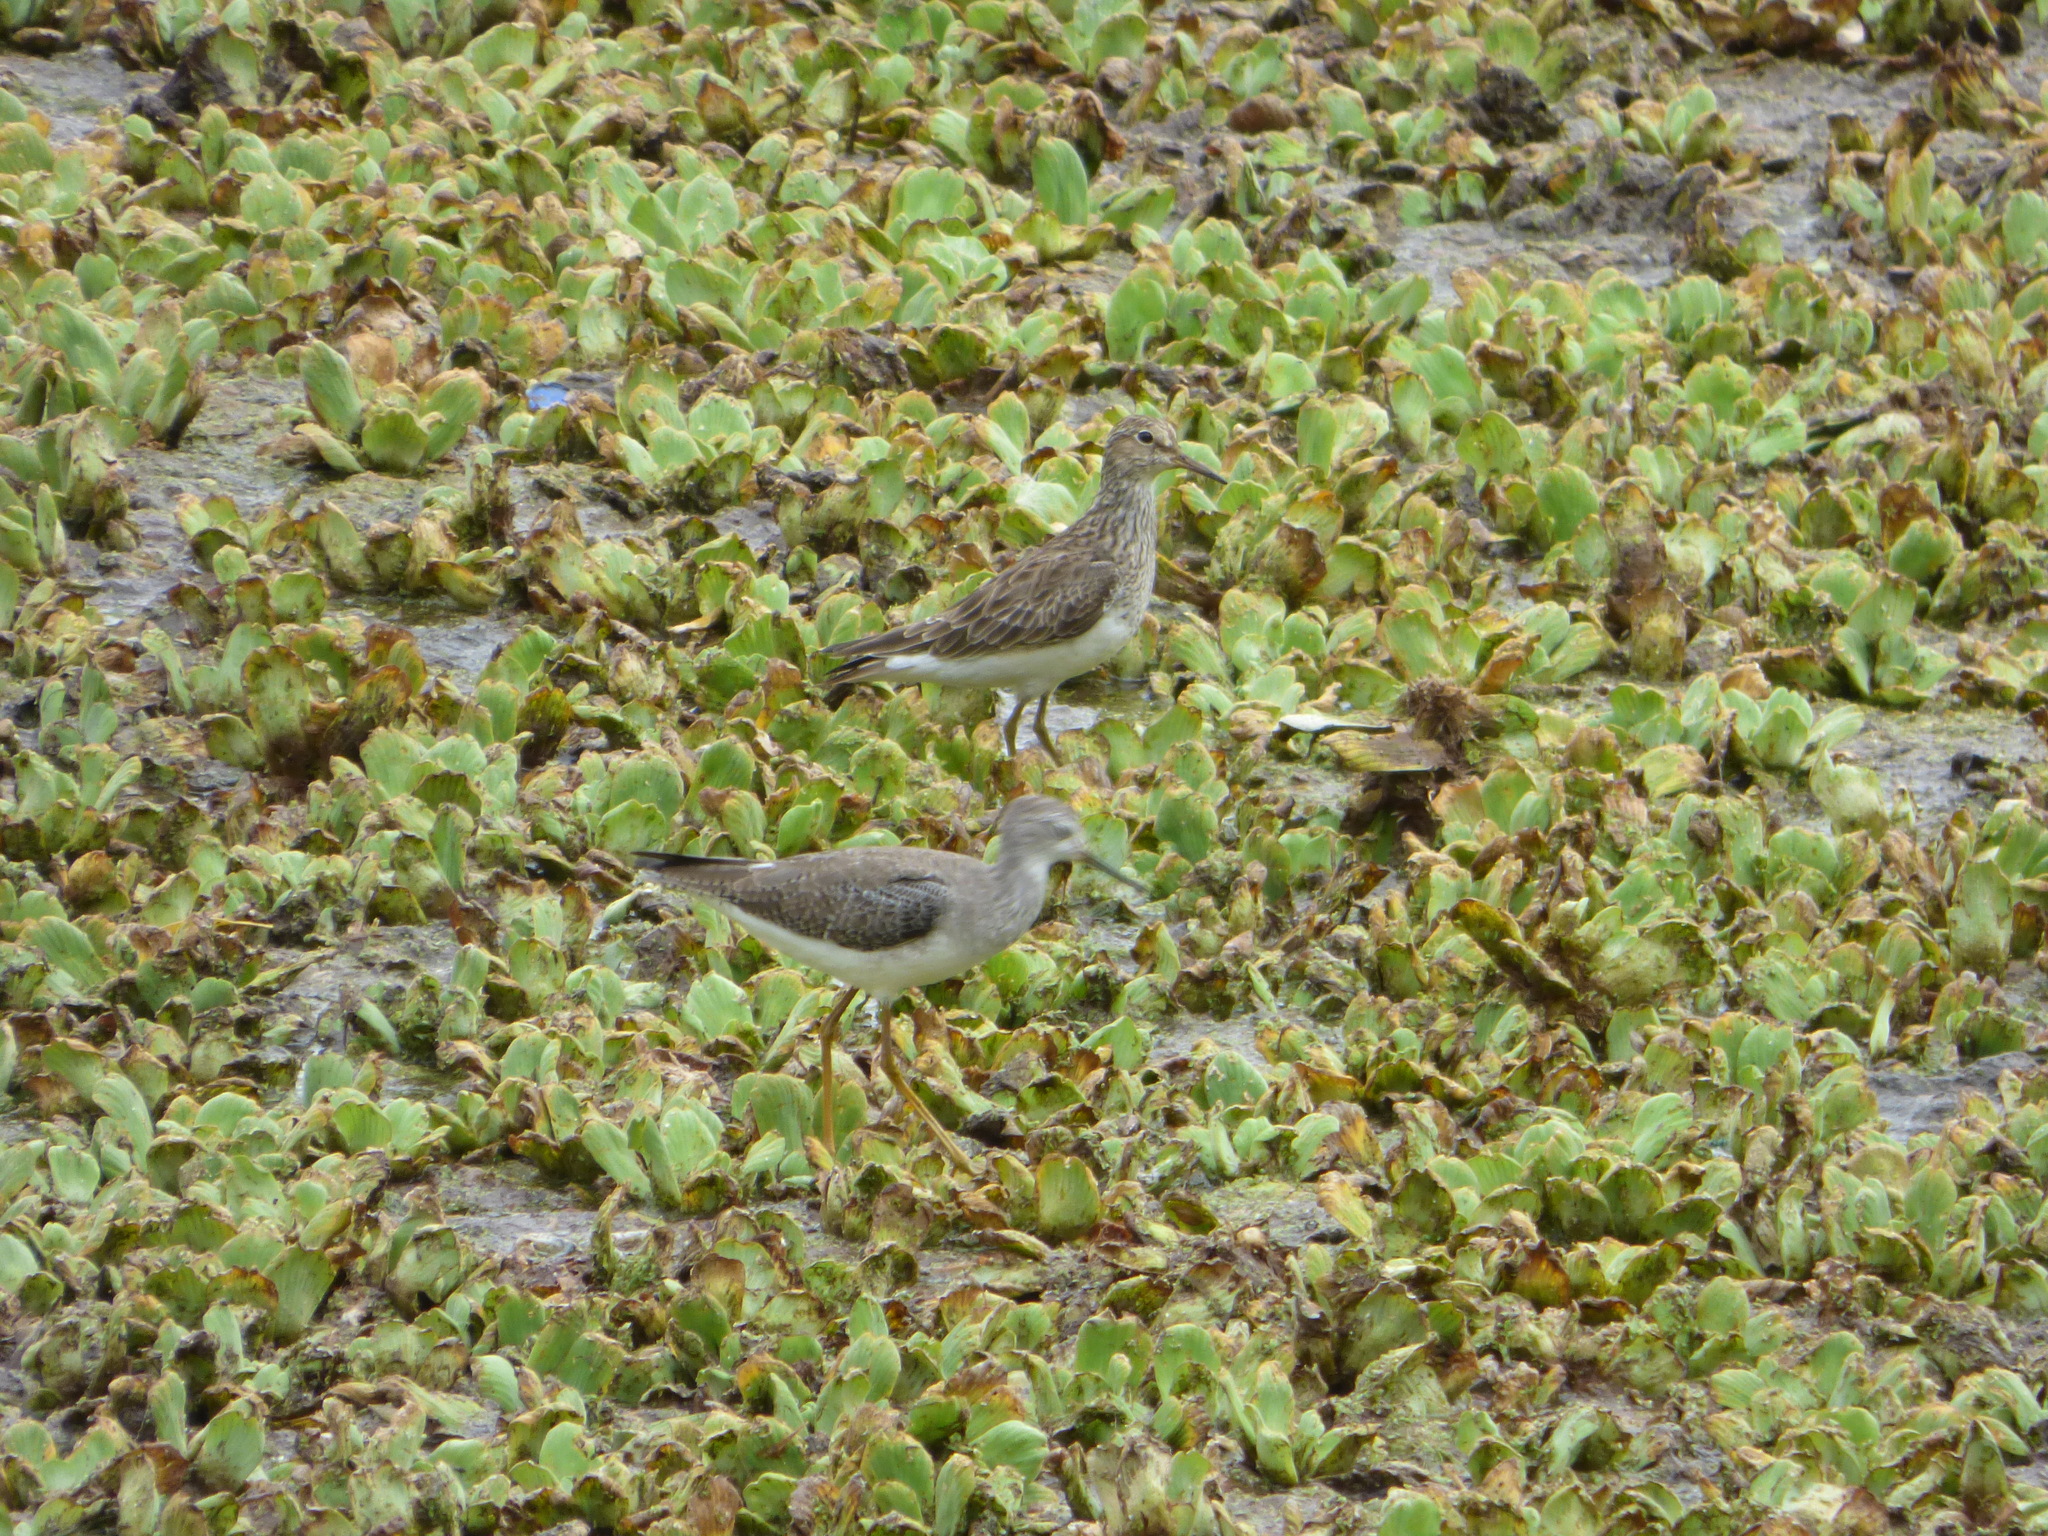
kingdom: Animalia
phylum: Chordata
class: Aves
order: Charadriiformes
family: Scolopacidae
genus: Tringa
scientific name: Tringa flavipes
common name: Lesser yellowlegs
